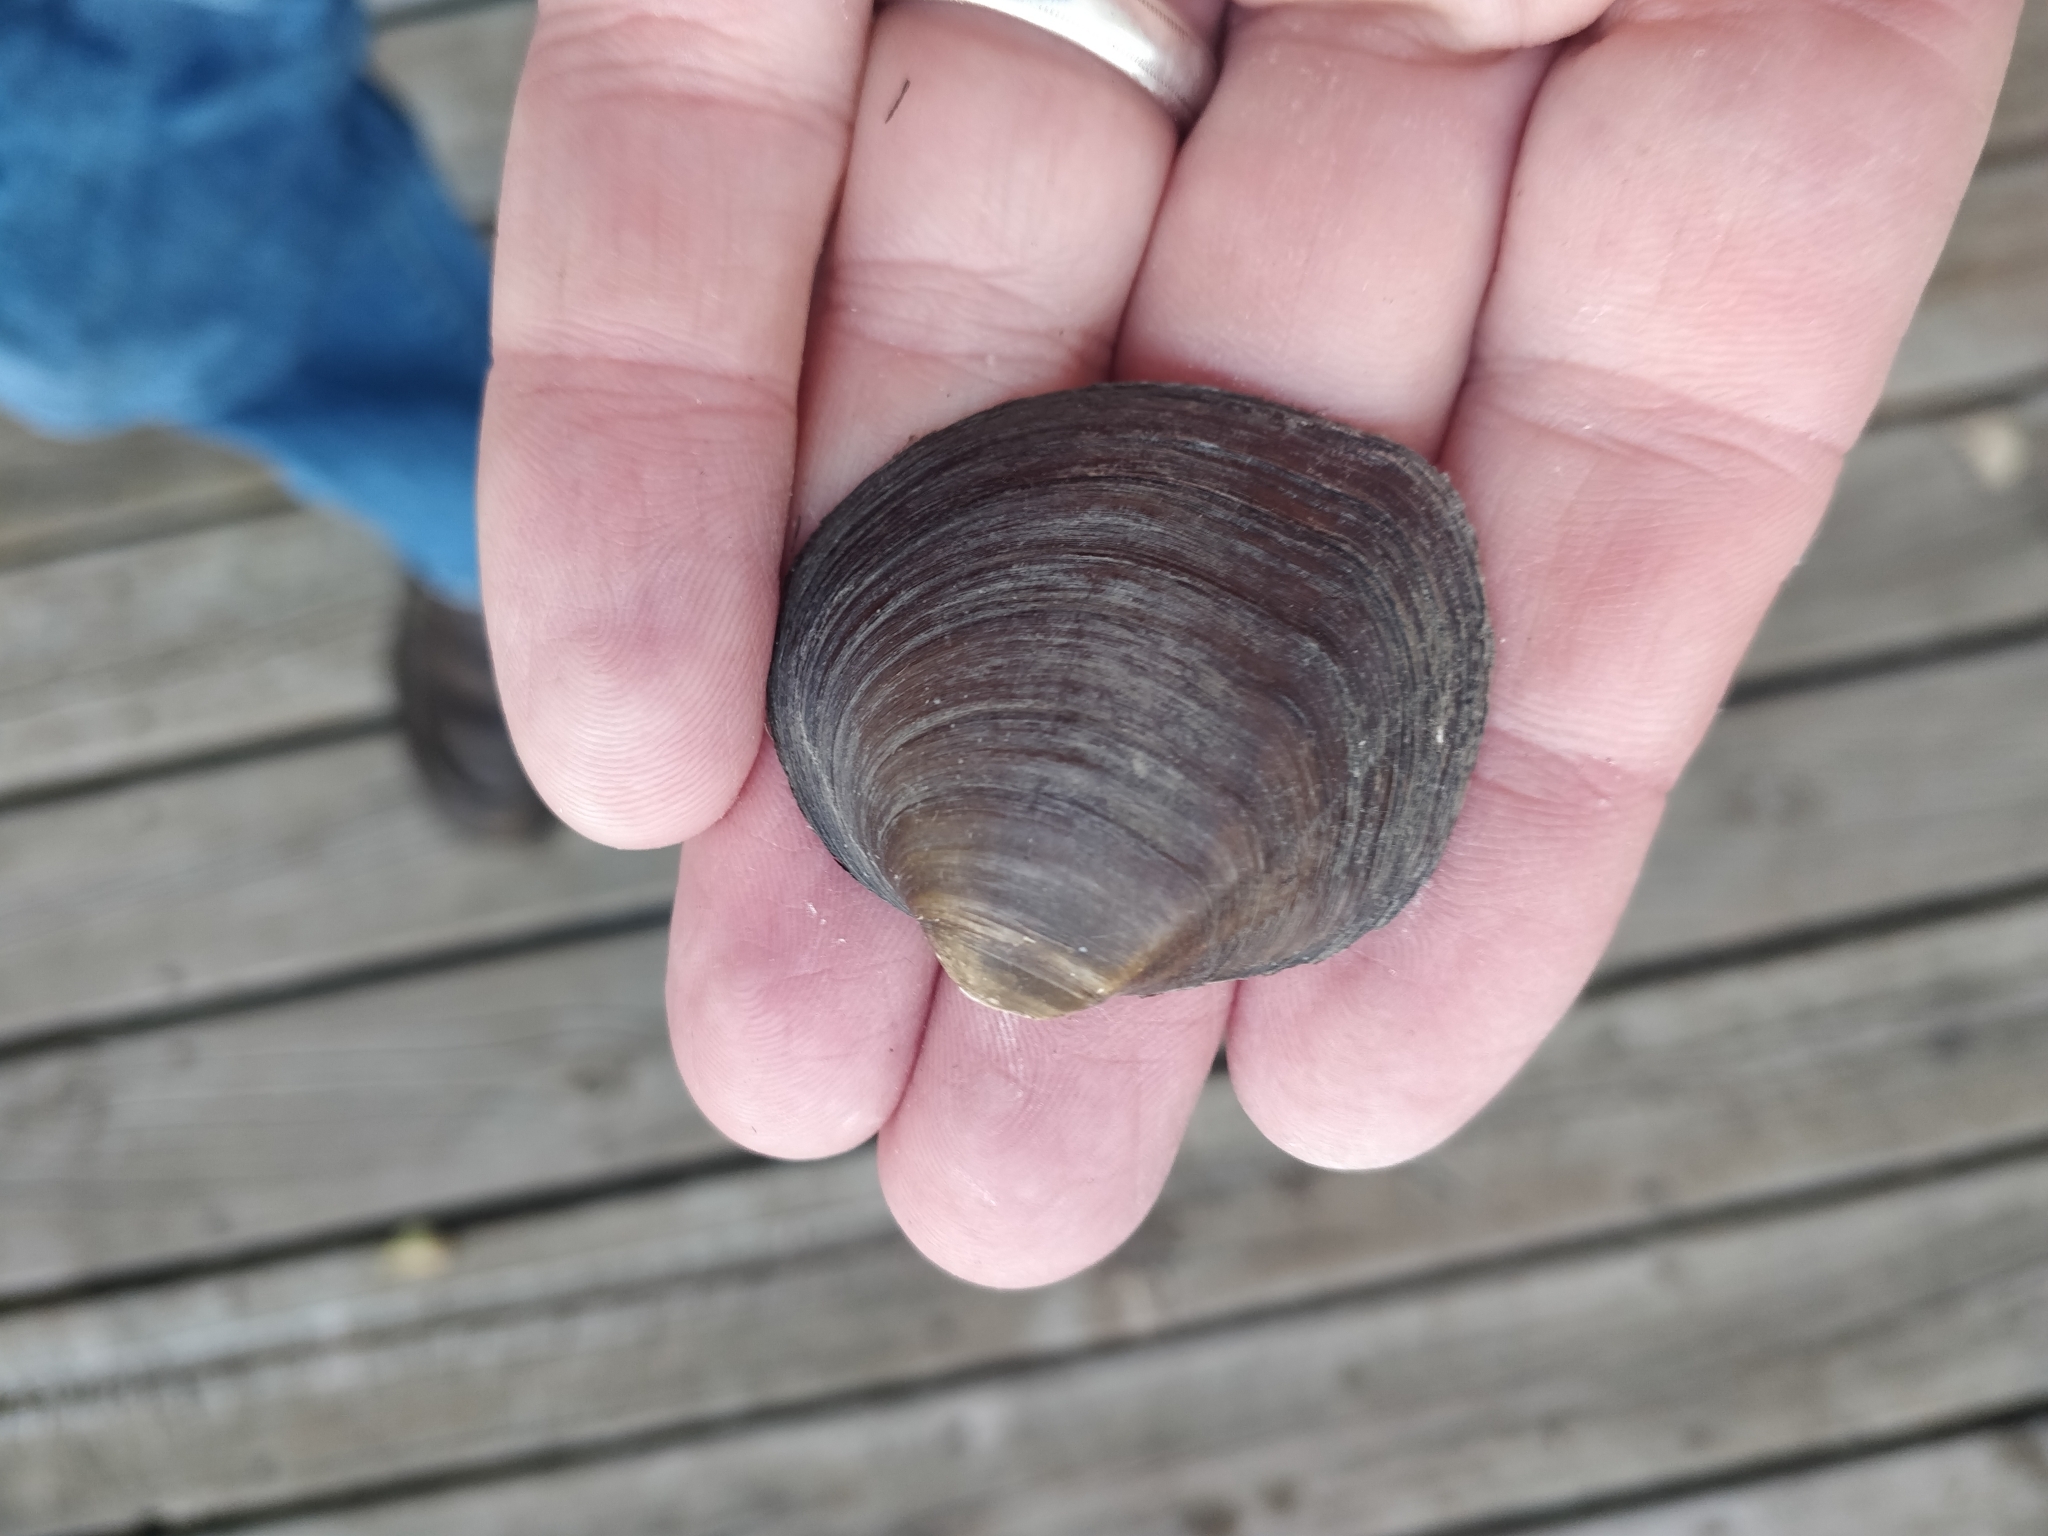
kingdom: Animalia
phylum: Mollusca
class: Bivalvia
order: Unionida
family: Unionidae
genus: Cyclonaias
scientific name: Cyclonaias pustulosa
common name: Pimpleback
